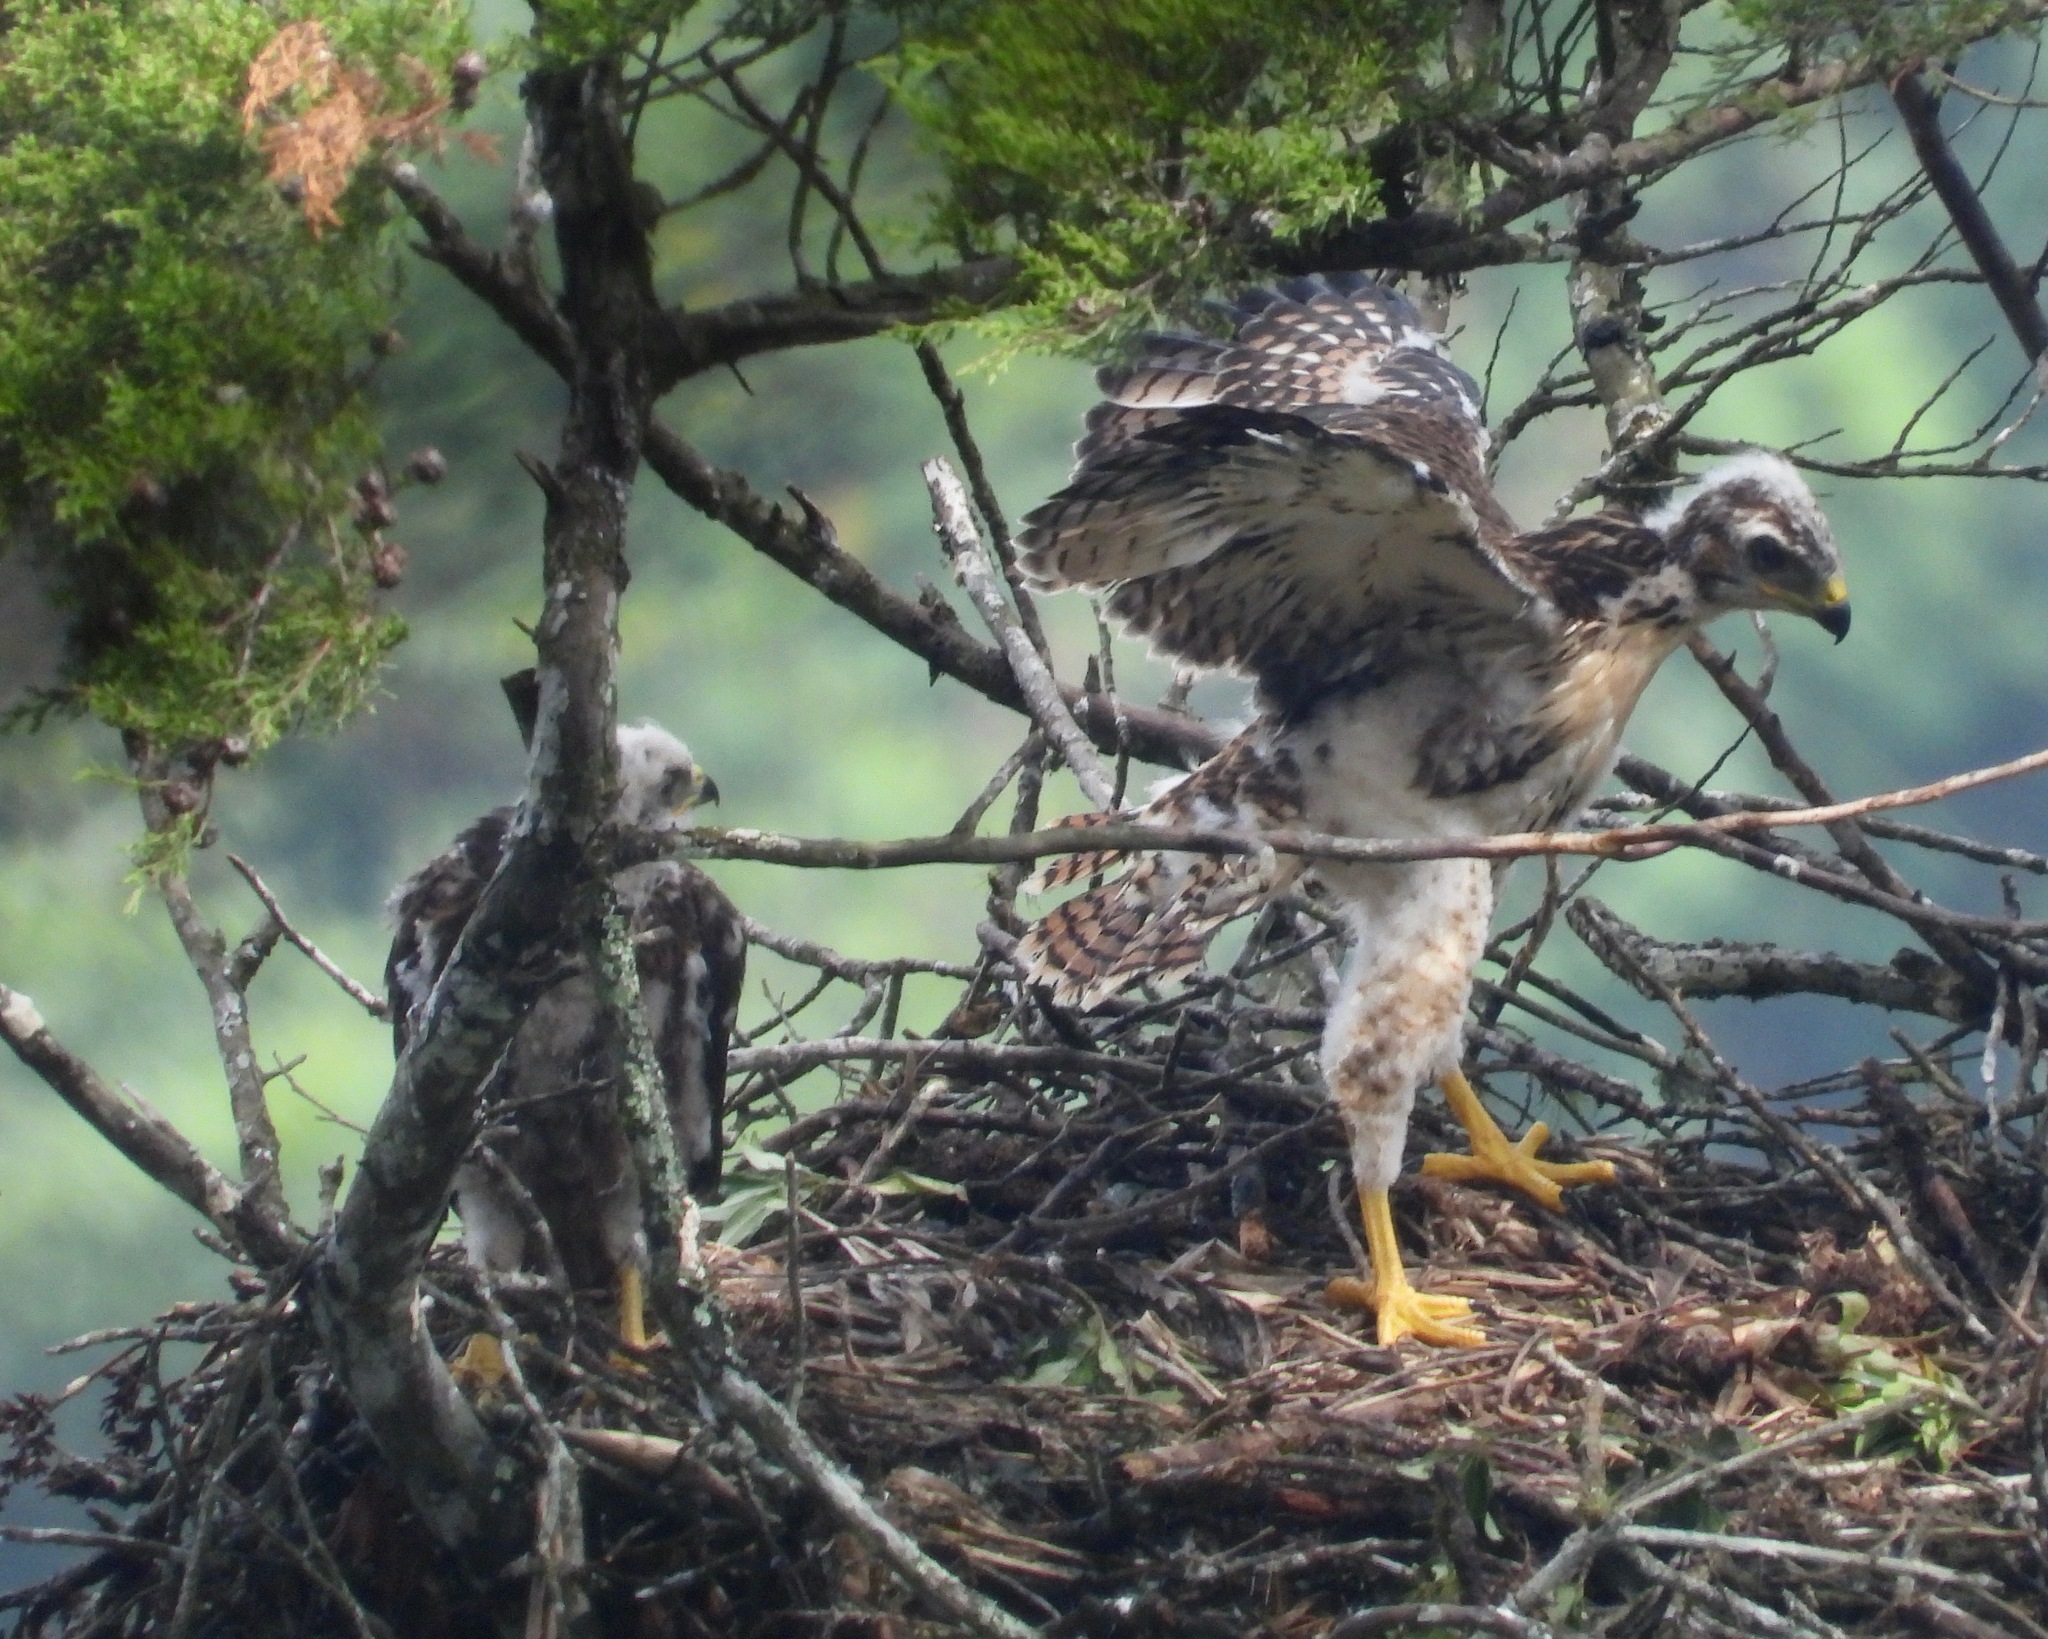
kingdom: Animalia
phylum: Chordata
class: Aves
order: Accipitriformes
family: Accipitridae
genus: Buteo
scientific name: Buteo jamaicensis
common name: Red-tailed hawk
